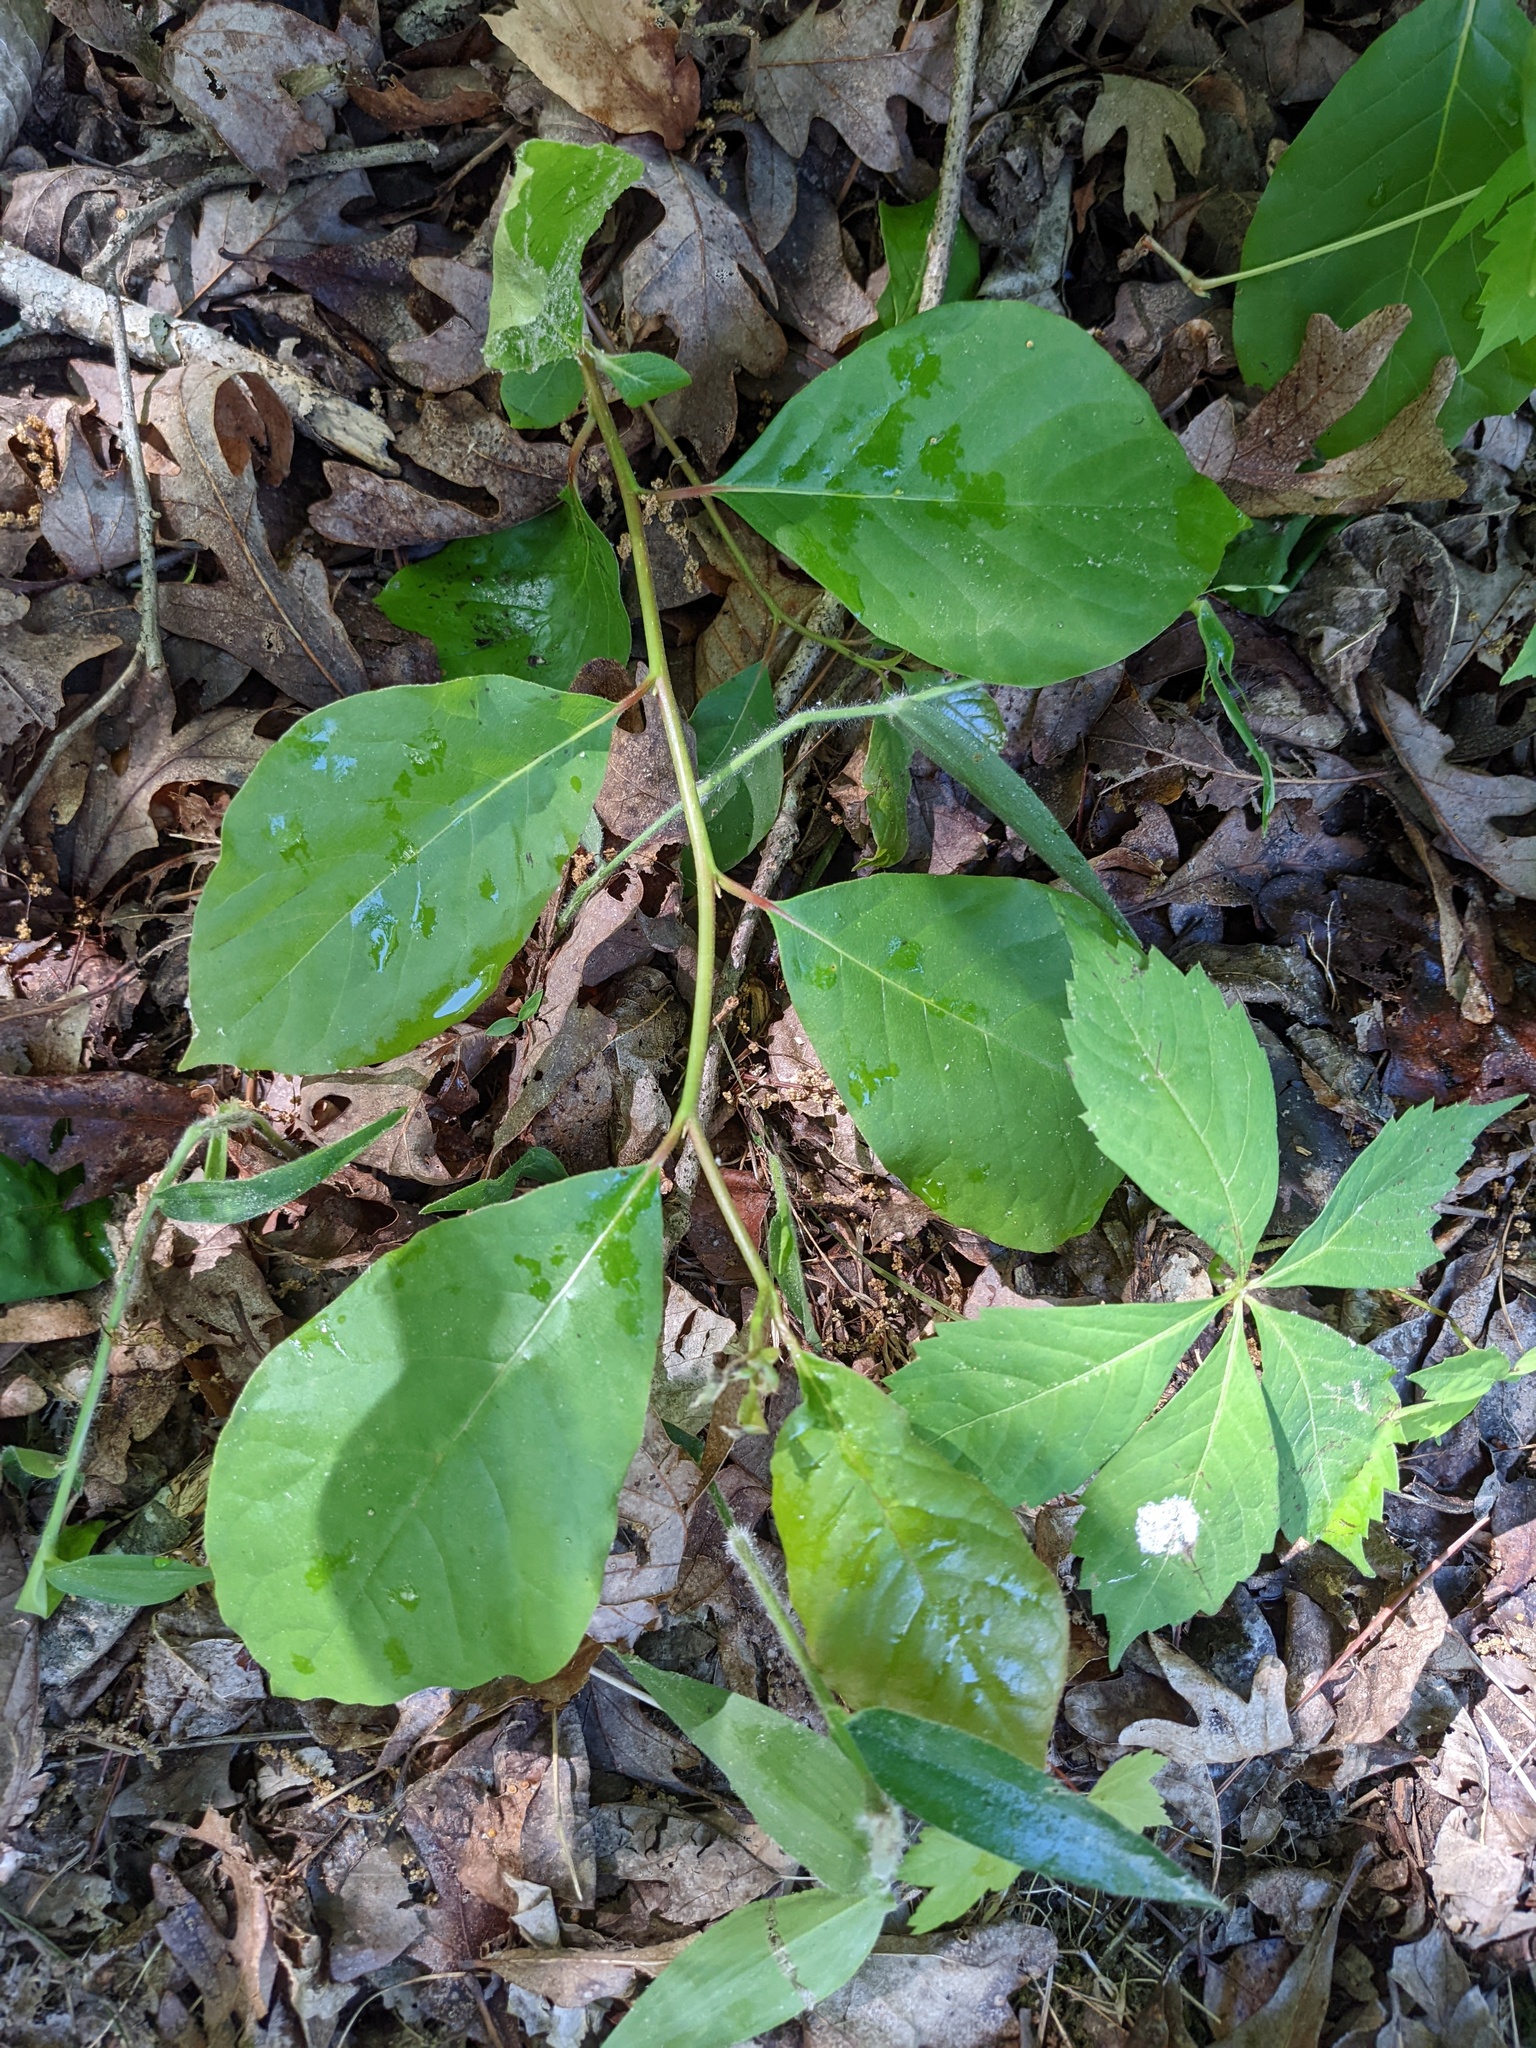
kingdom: Plantae
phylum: Tracheophyta
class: Magnoliopsida
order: Cornales
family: Nyssaceae
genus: Nyssa
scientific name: Nyssa sylvatica
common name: Black tupelo
